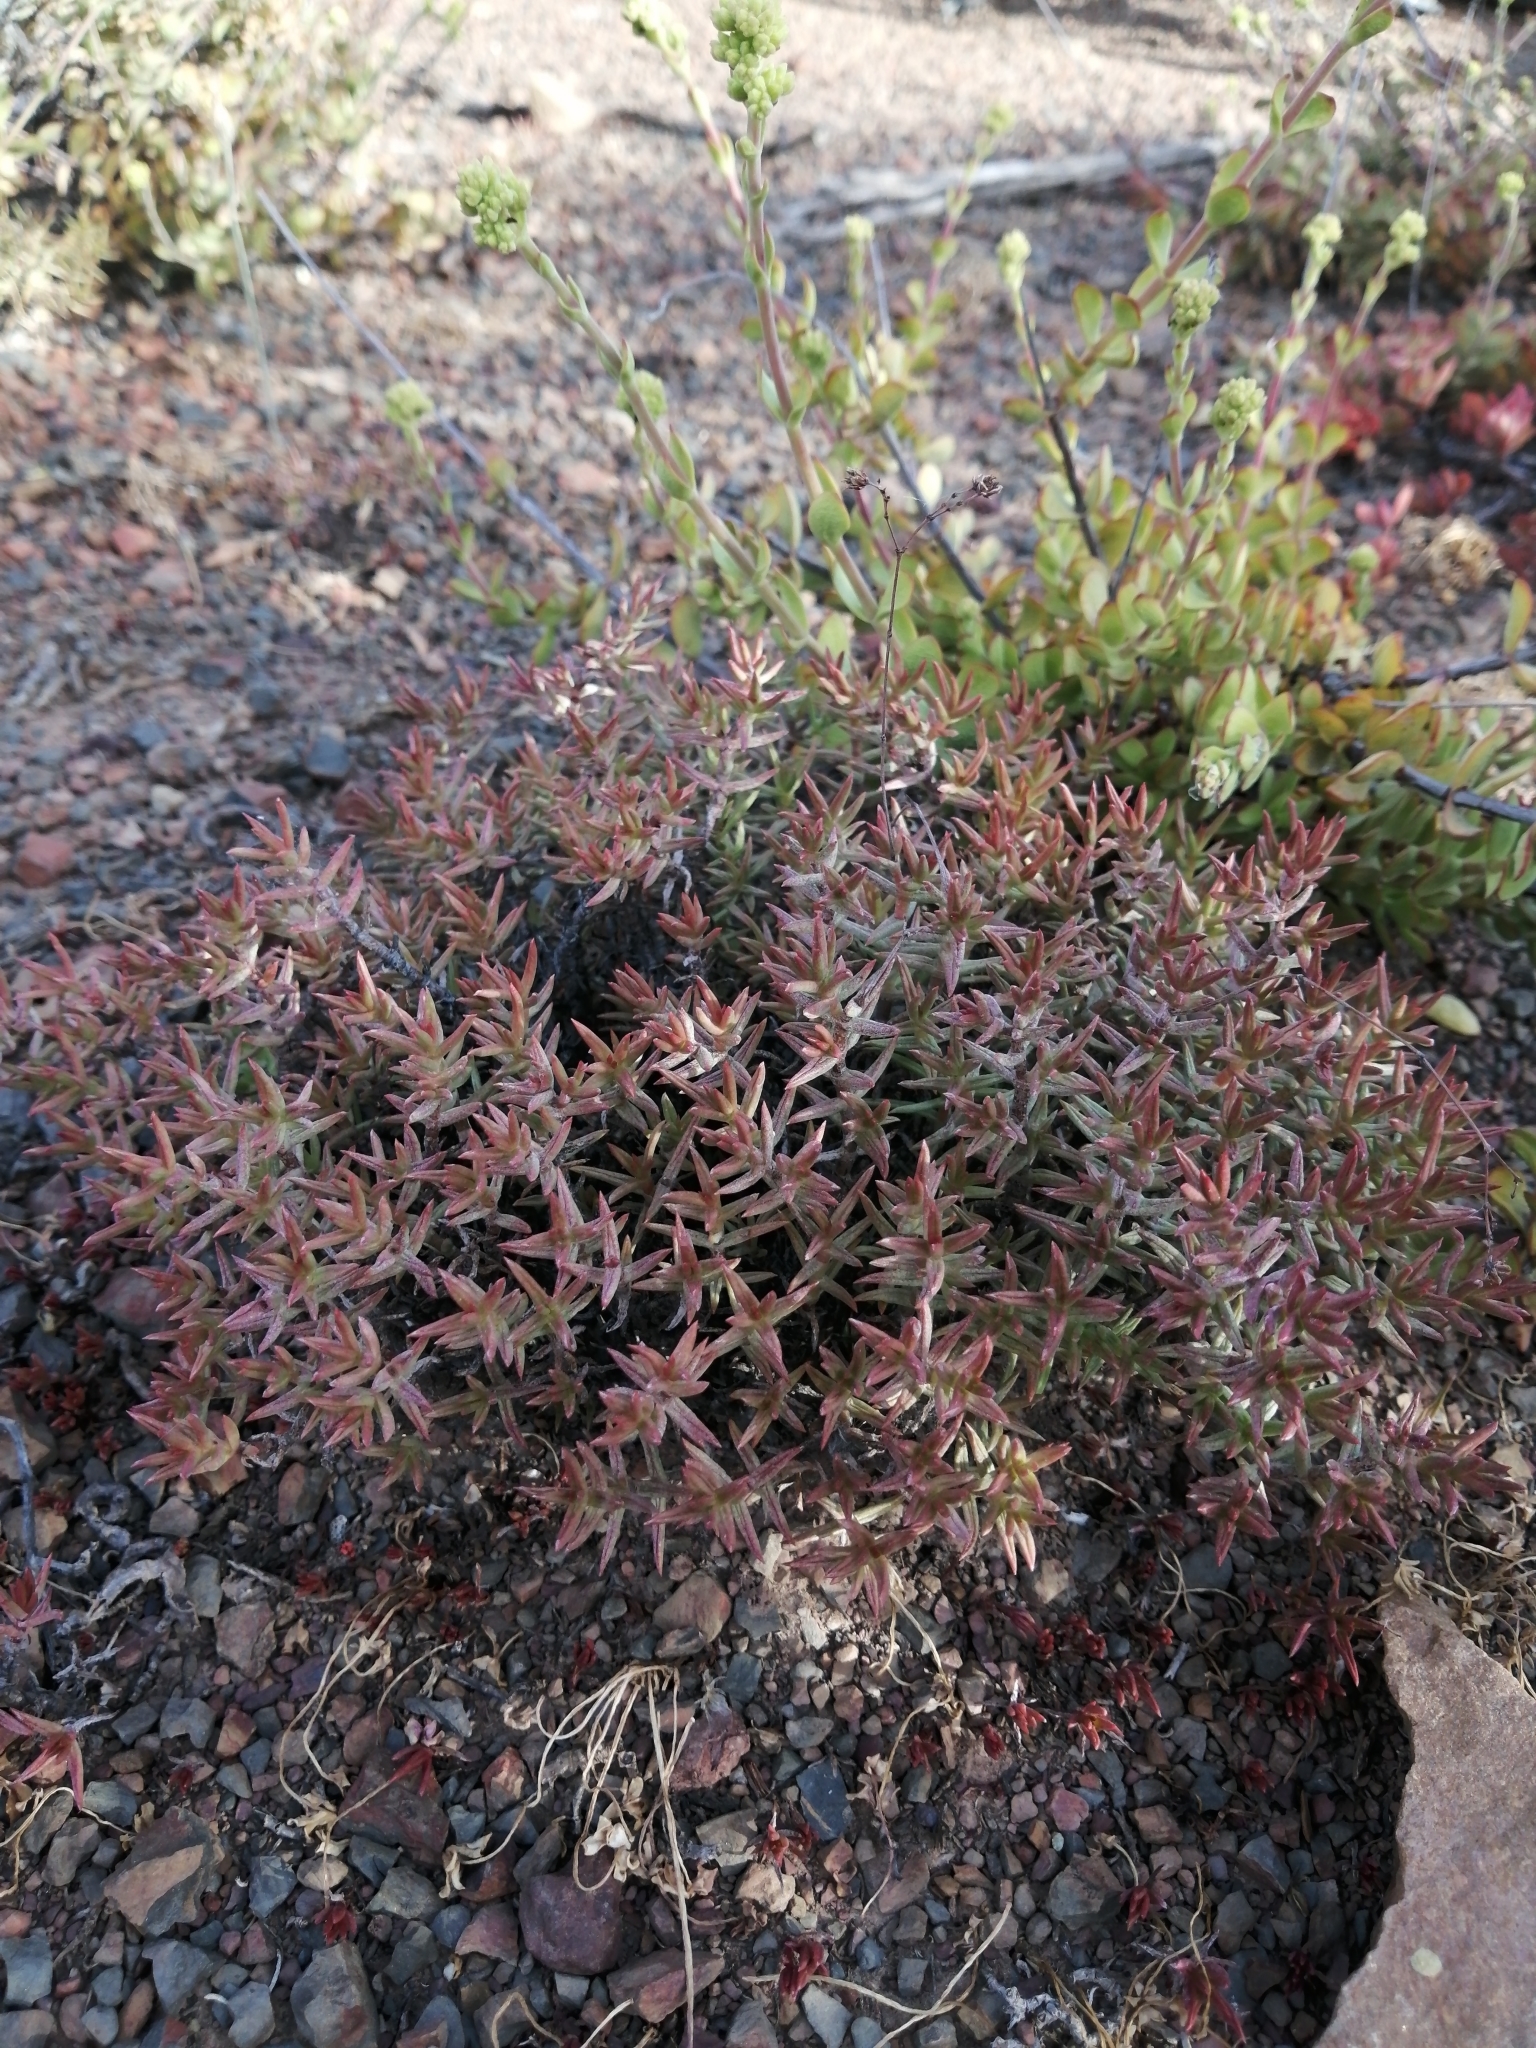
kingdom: Plantae
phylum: Tracheophyta
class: Magnoliopsida
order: Saxifragales
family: Crassulaceae
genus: Crassula
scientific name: Crassula tetragona
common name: Pygmyweed
